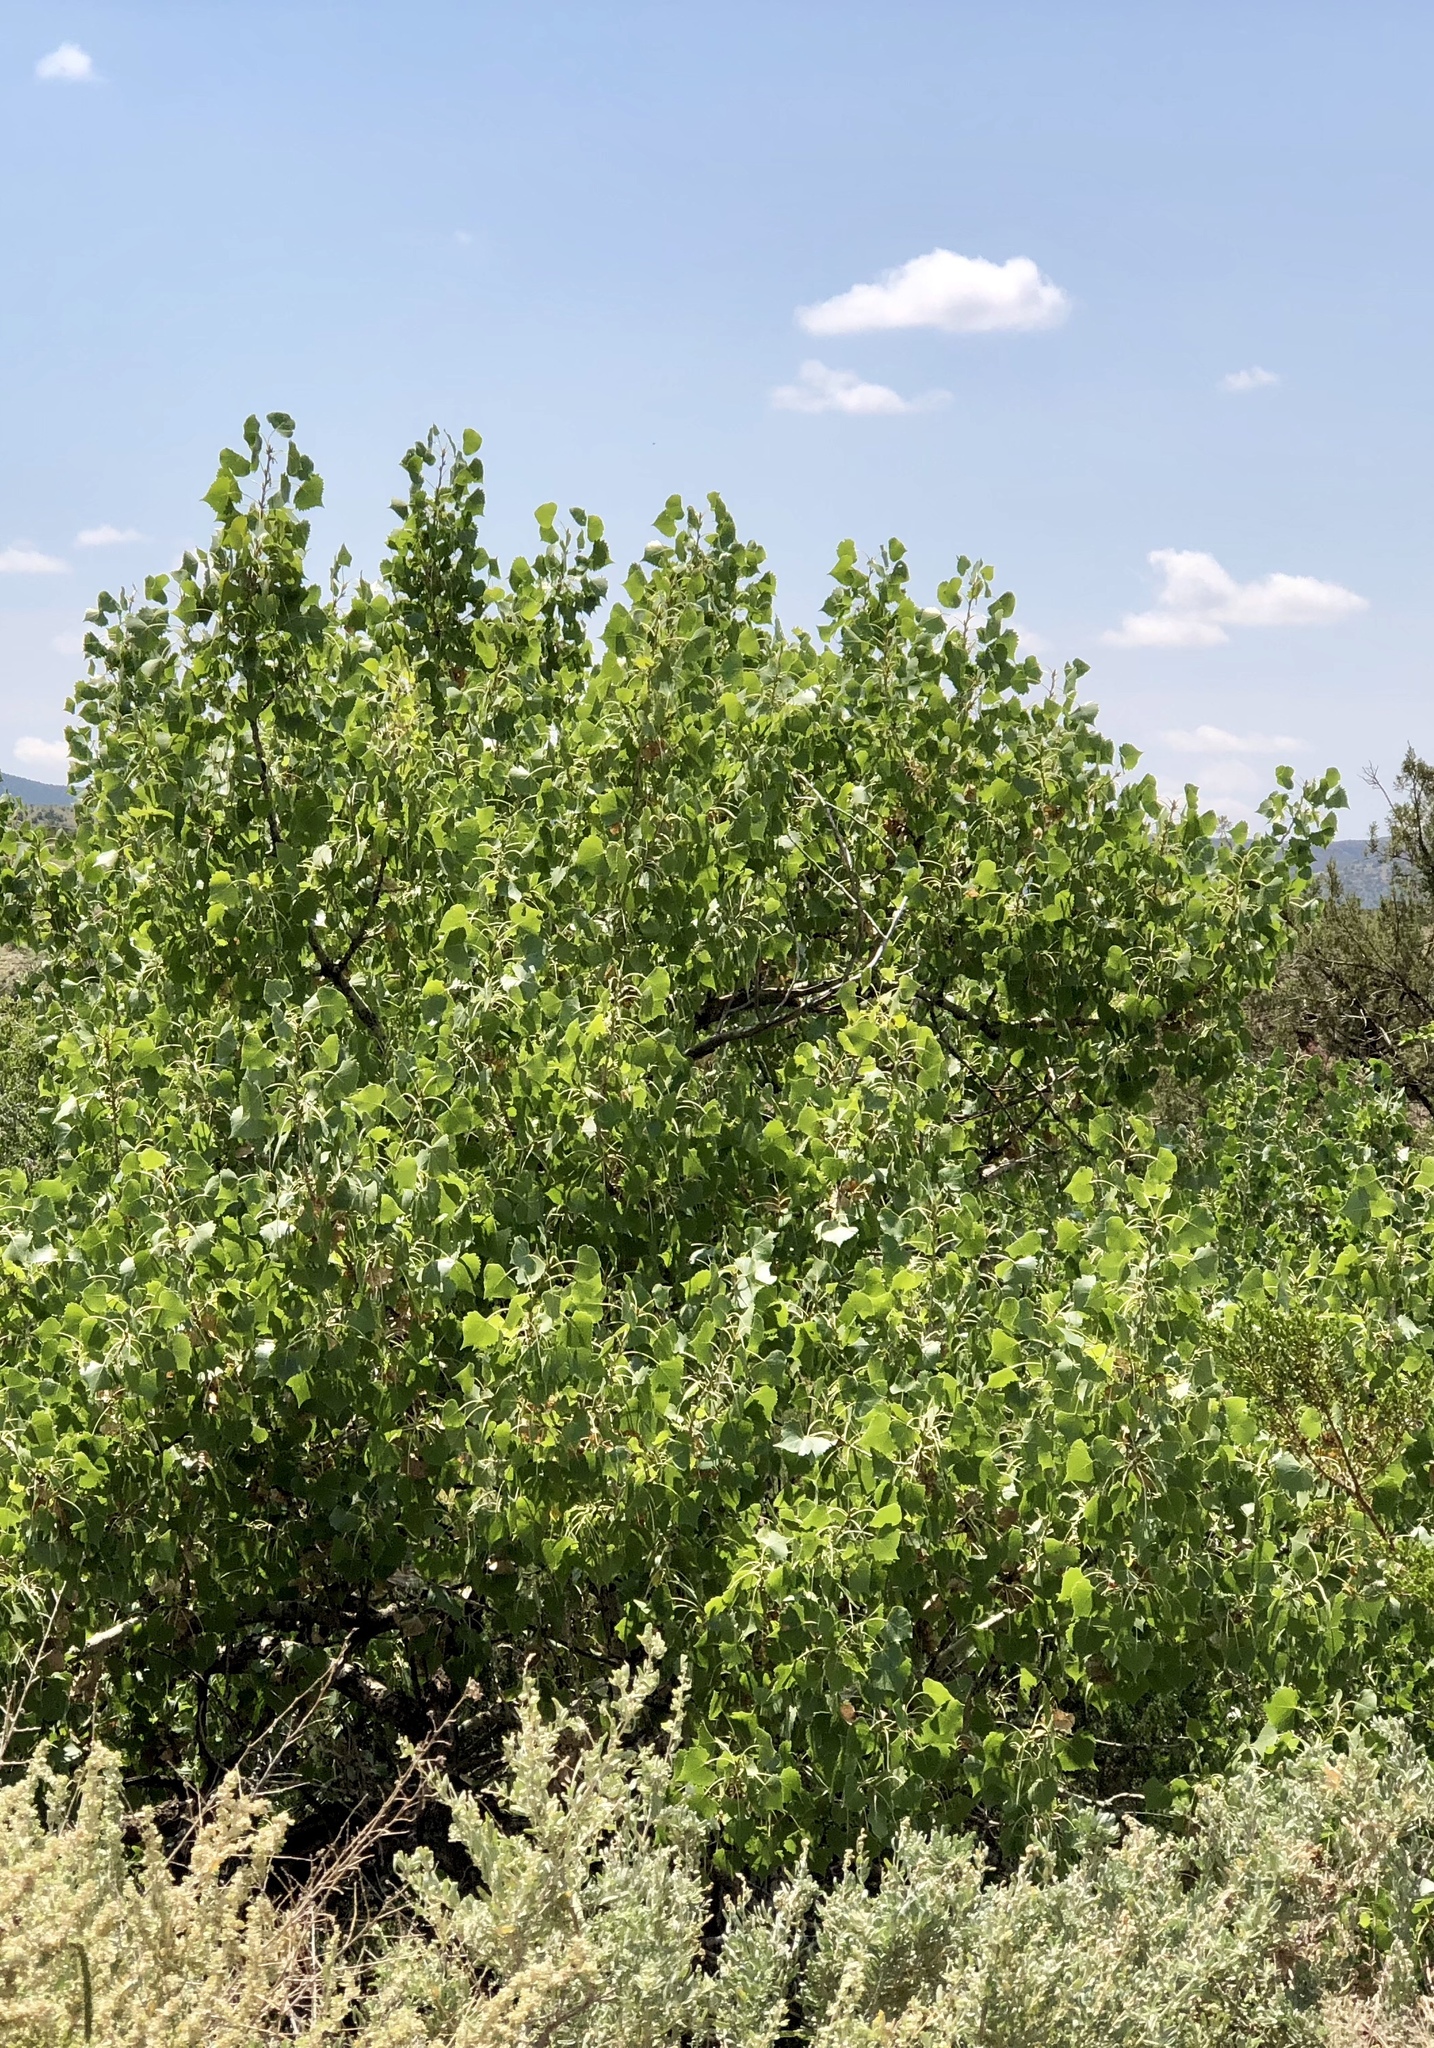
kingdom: Plantae
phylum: Tracheophyta
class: Magnoliopsida
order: Malpighiales
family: Salicaceae
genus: Populus
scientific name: Populus fremontii
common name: Fremont's cottonwood
